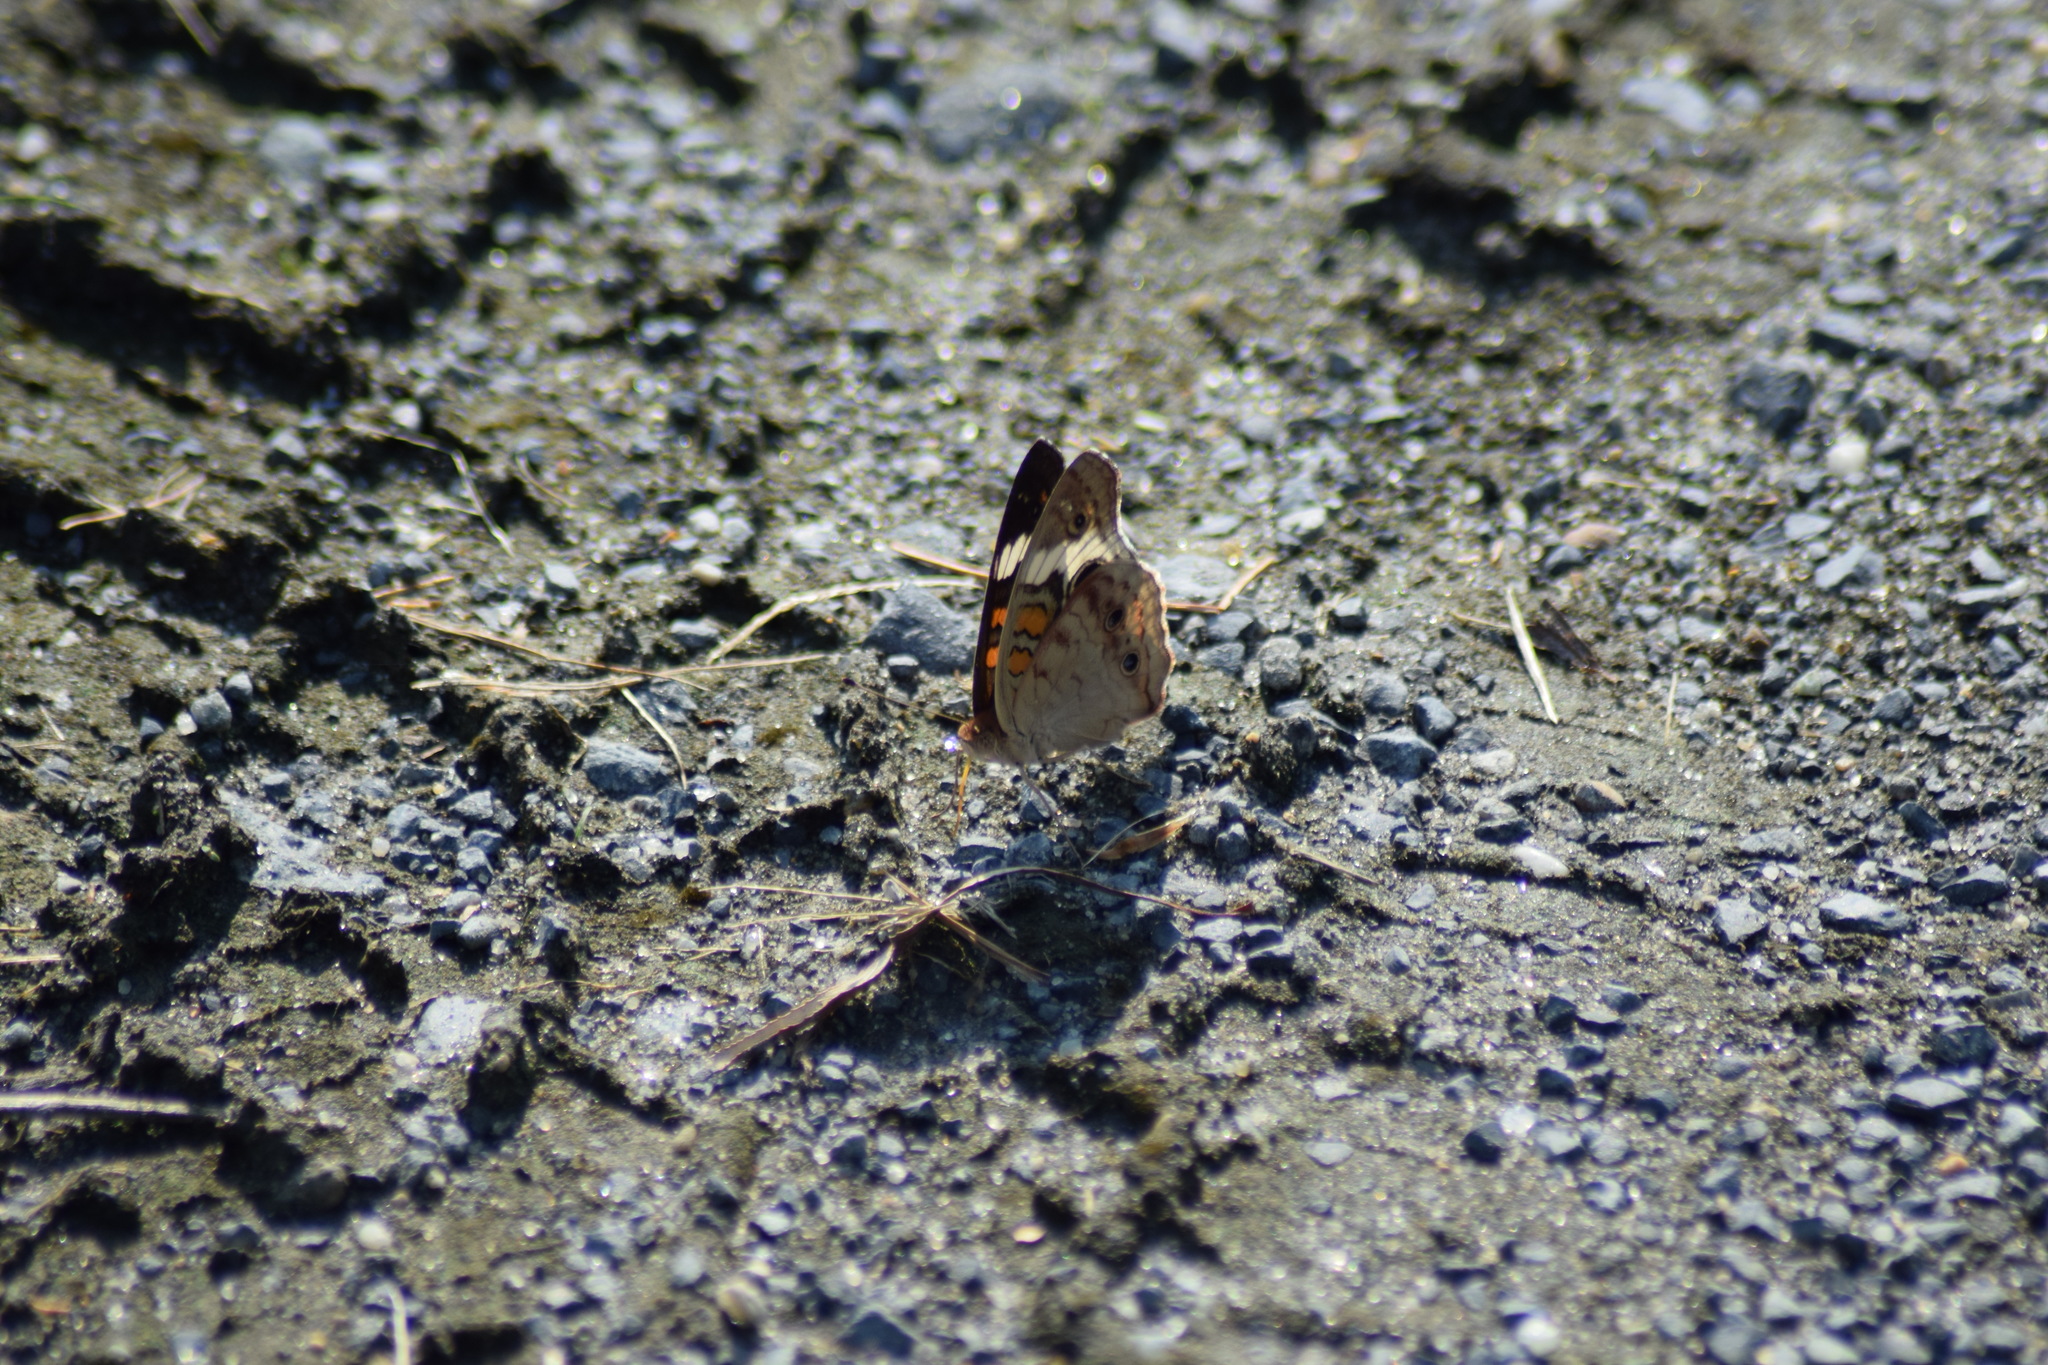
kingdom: Animalia
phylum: Arthropoda
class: Insecta
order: Lepidoptera
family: Nymphalidae
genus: Junonia
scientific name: Junonia coenia
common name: Common buckeye
